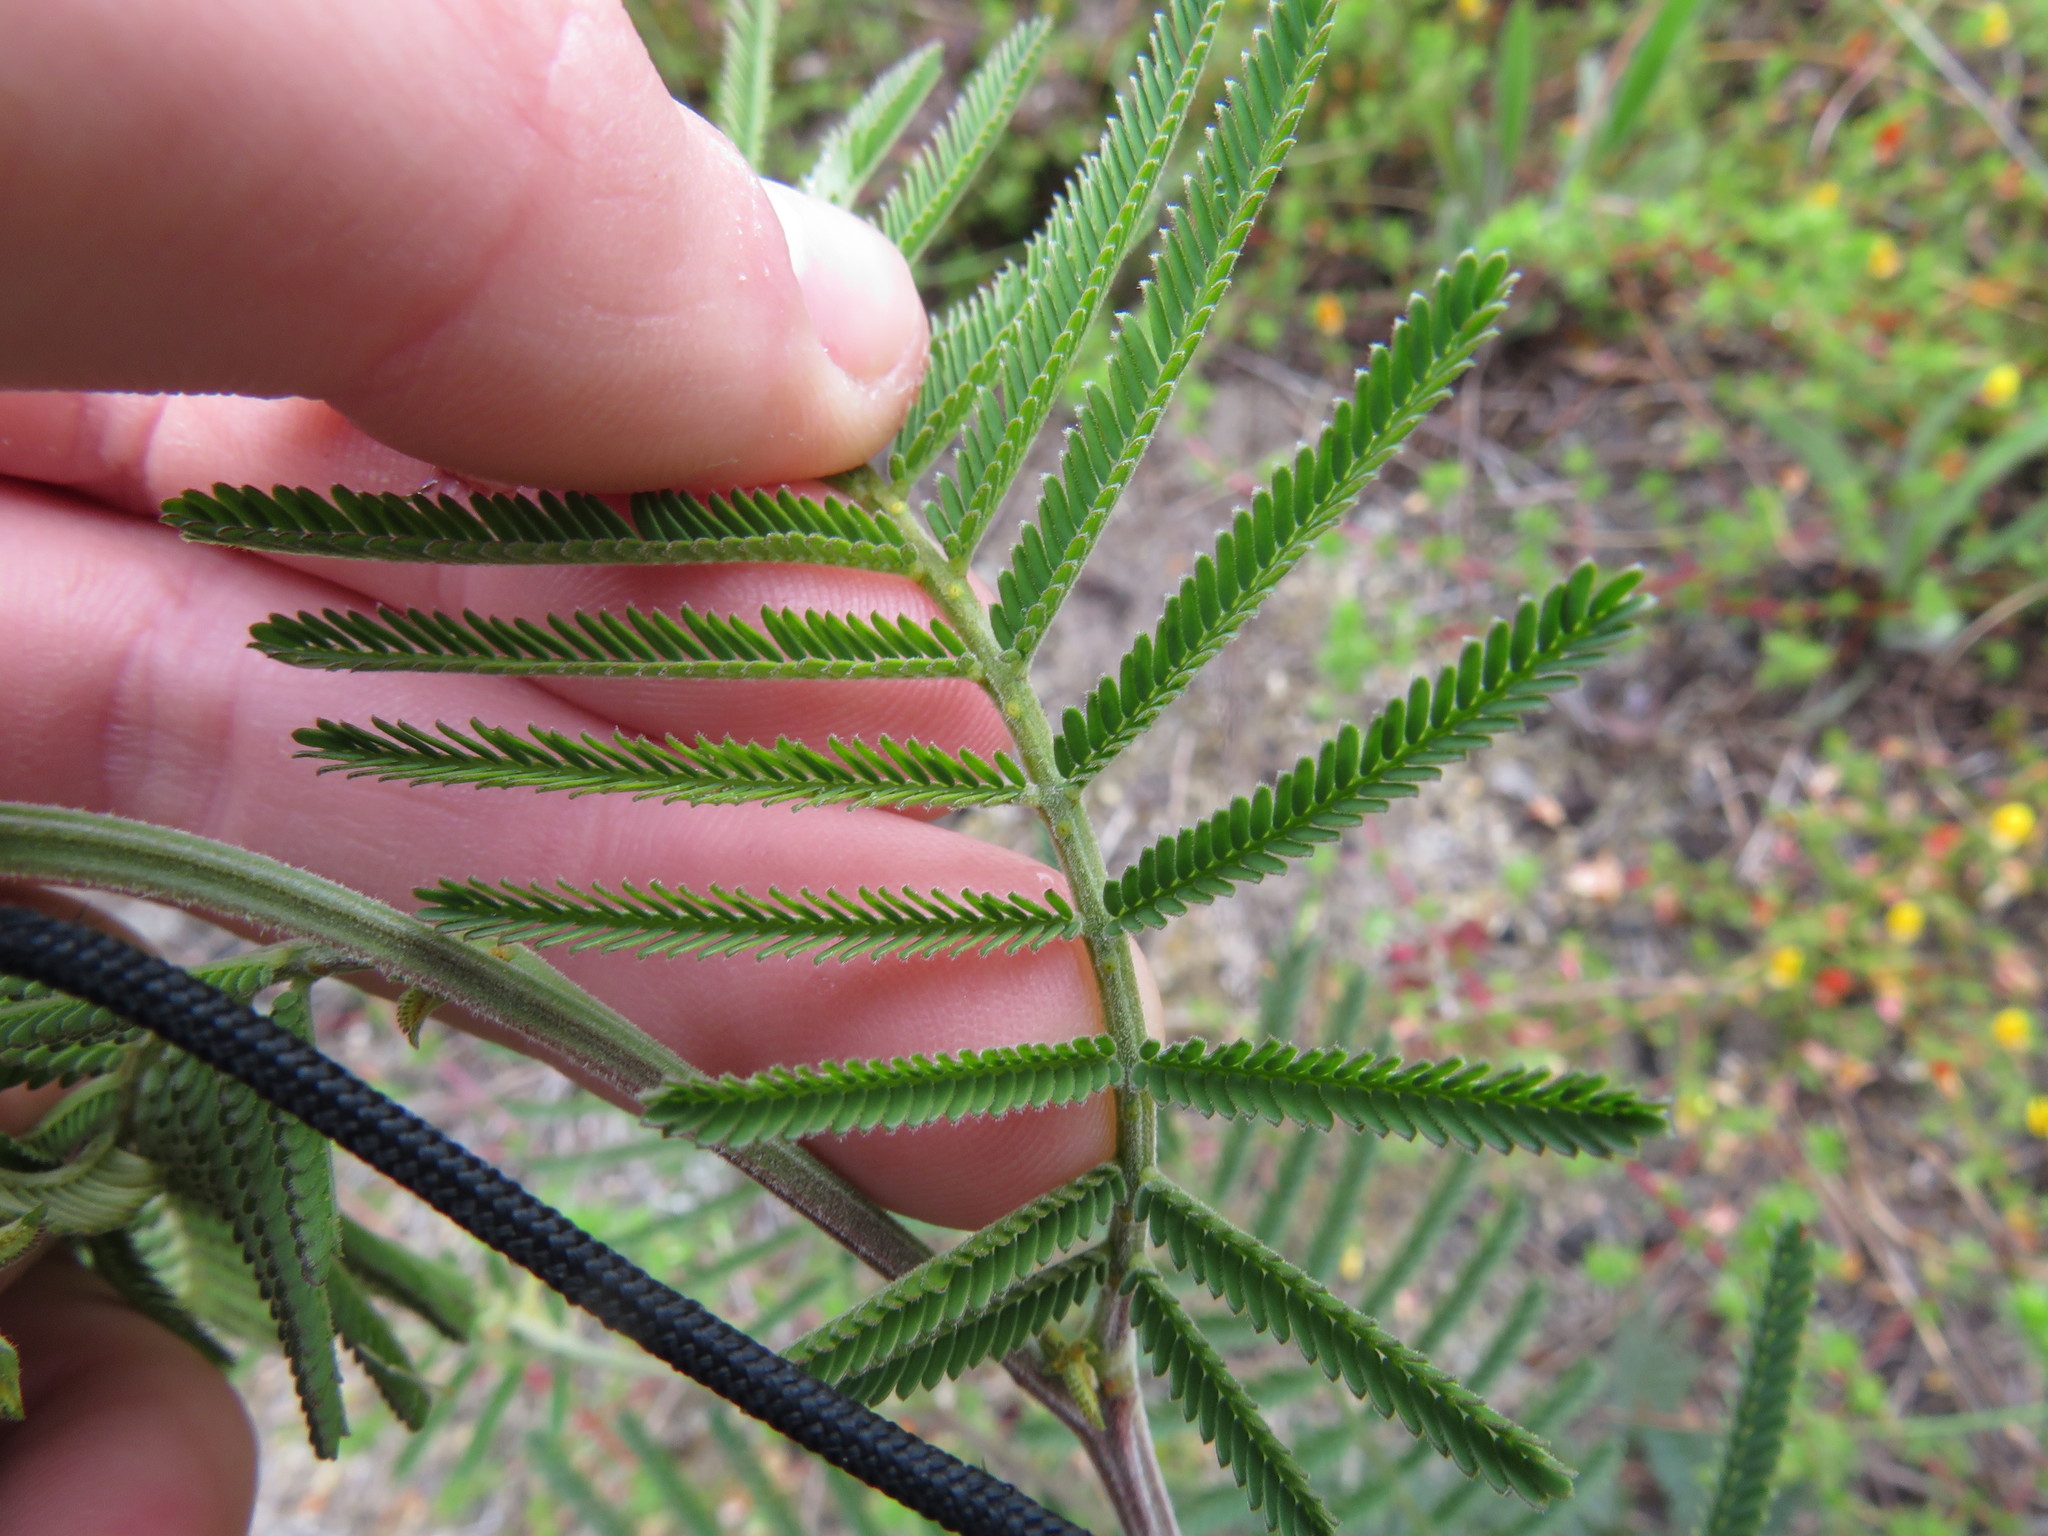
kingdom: Plantae
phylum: Tracheophyta
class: Magnoliopsida
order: Fabales
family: Fabaceae
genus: Acacia
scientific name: Acacia mearnsii
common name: Black wattle
